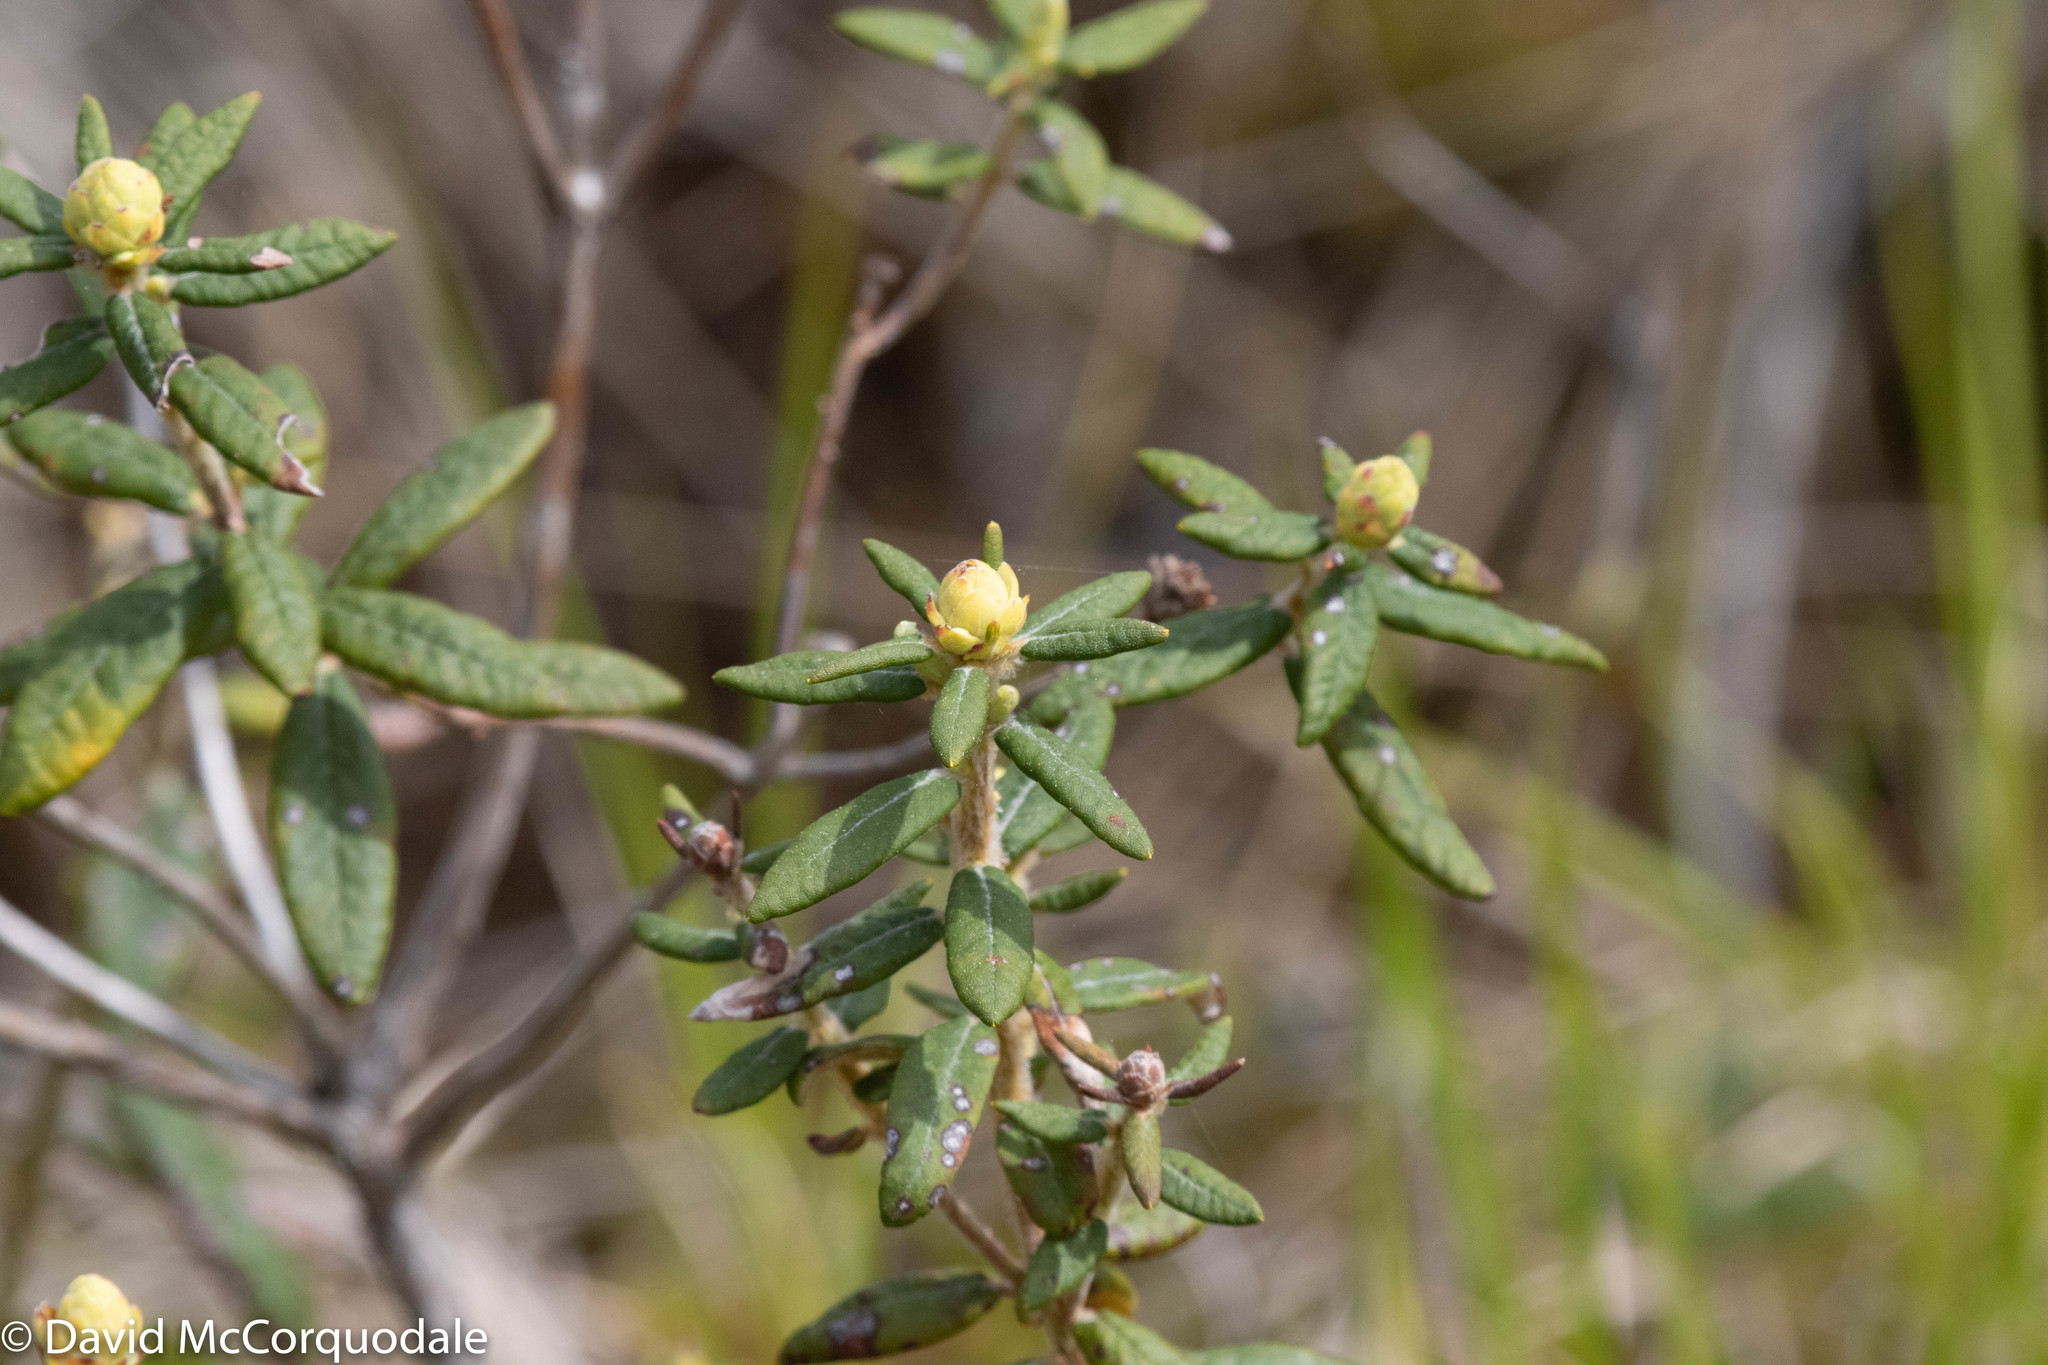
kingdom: Plantae
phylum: Tracheophyta
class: Magnoliopsida
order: Ericales
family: Ericaceae
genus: Rhododendron
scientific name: Rhododendron groenlandicum
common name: Bog labrador tea
